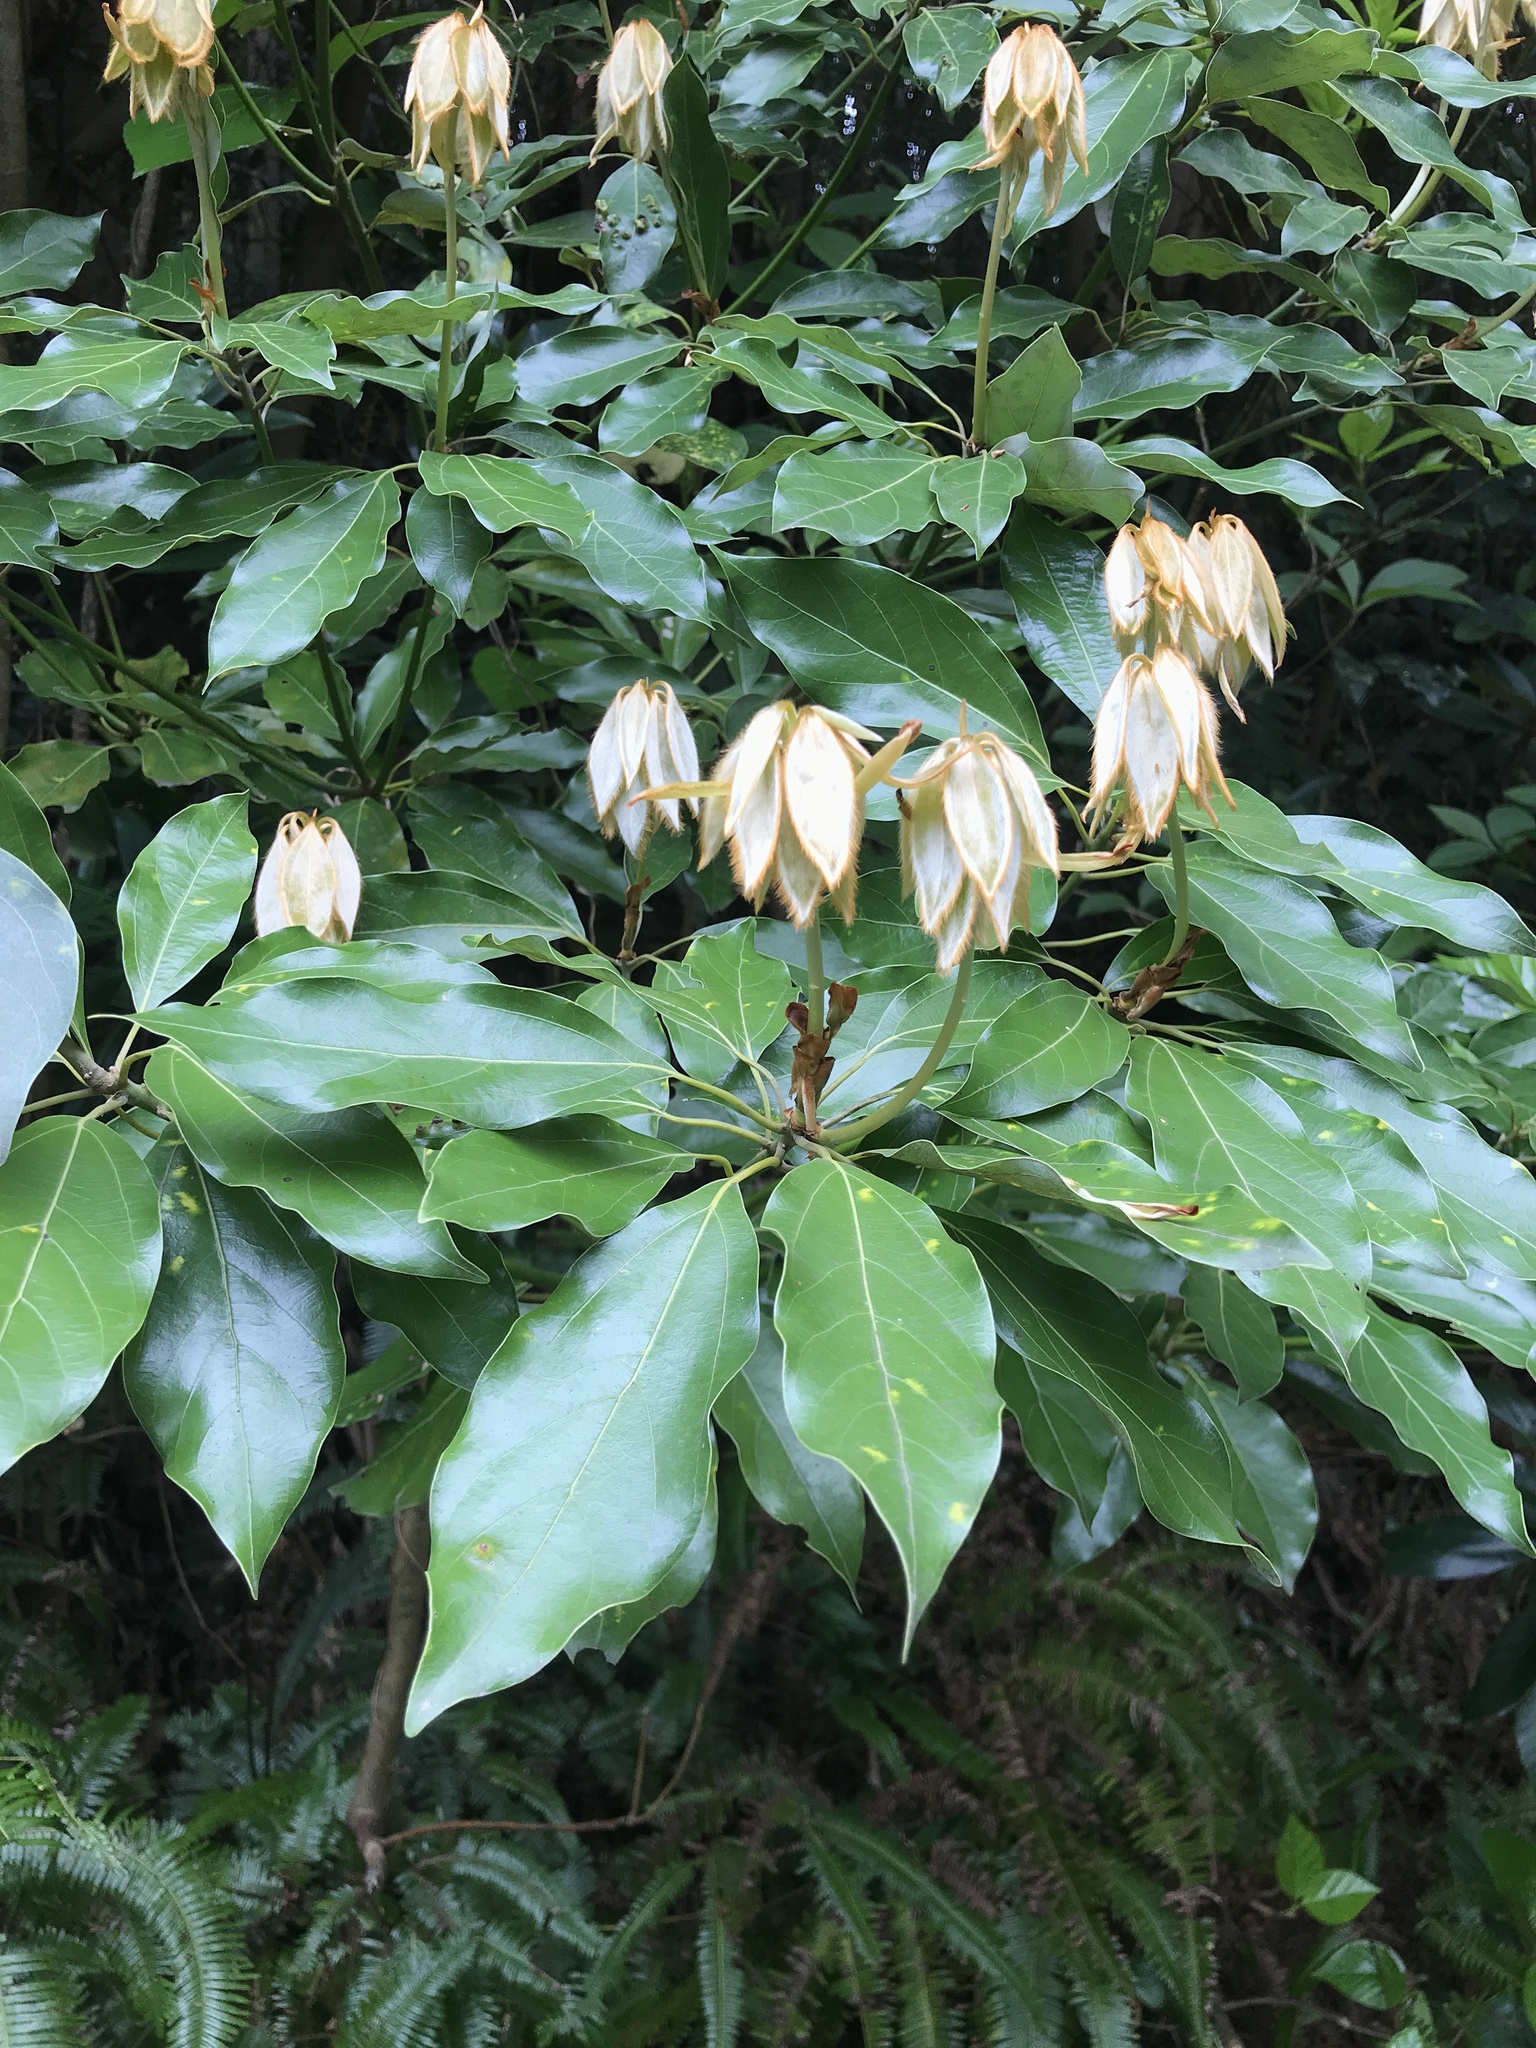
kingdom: Plantae
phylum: Tracheophyta
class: Magnoliopsida
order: Laurales
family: Lauraceae
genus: Neolitsea
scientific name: Neolitsea sericea
